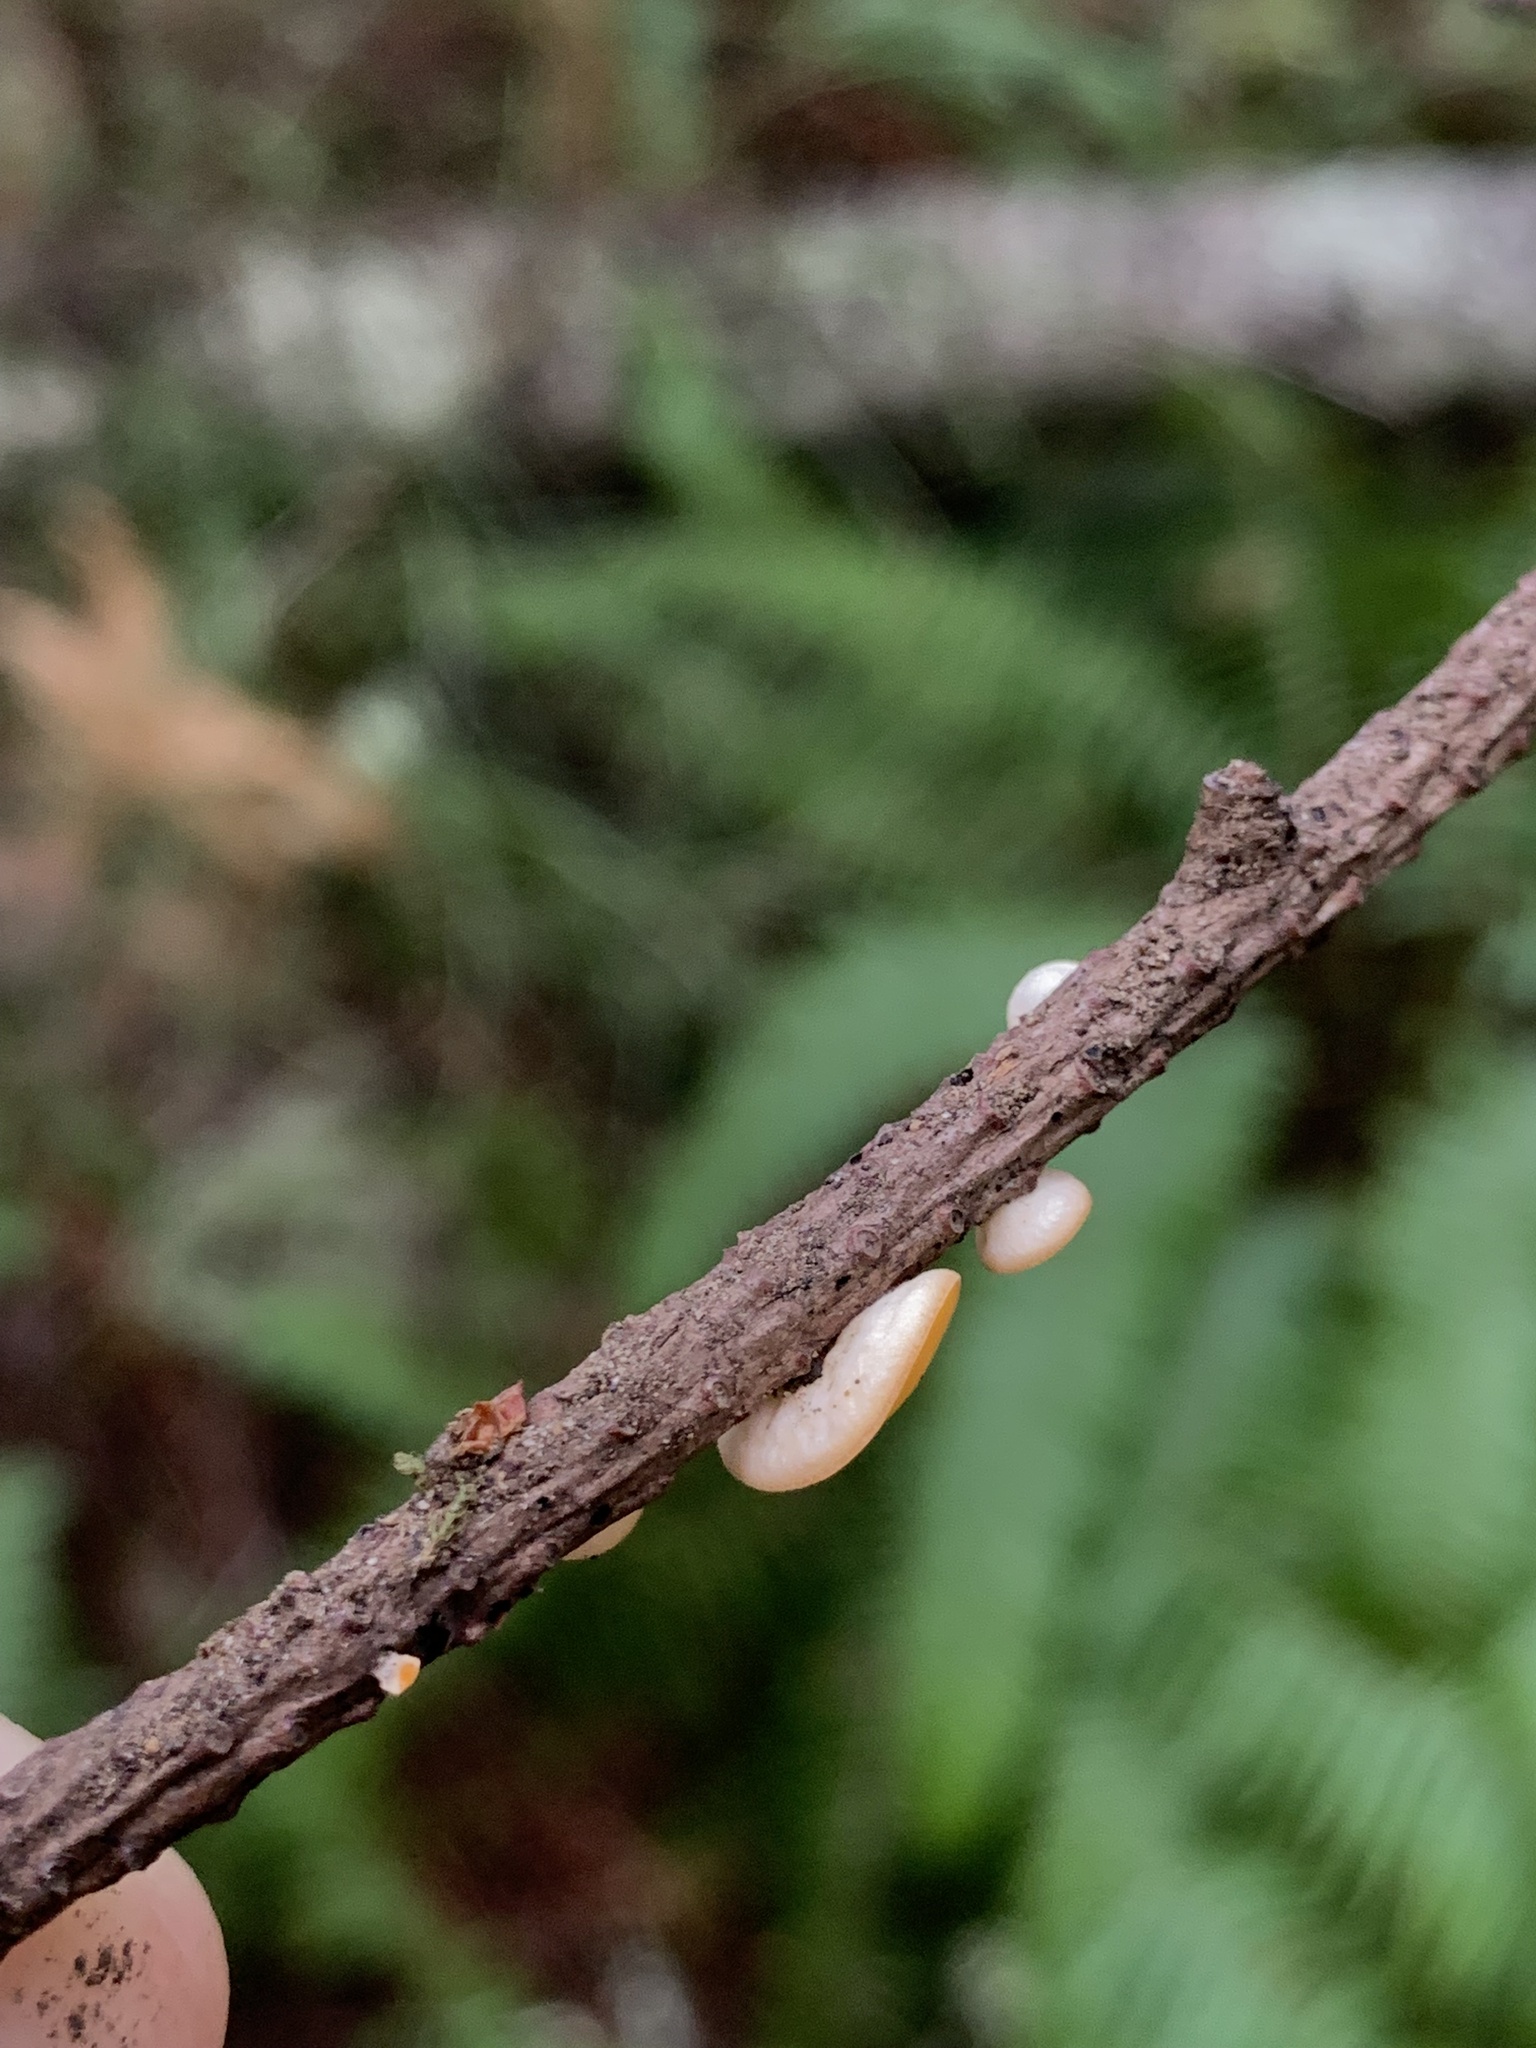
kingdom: Fungi
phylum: Ascomycota
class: Pezizomycetes
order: Pezizales
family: Sarcoscyphaceae
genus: Pithya
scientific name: Pithya vulgaris
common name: Fir disco
